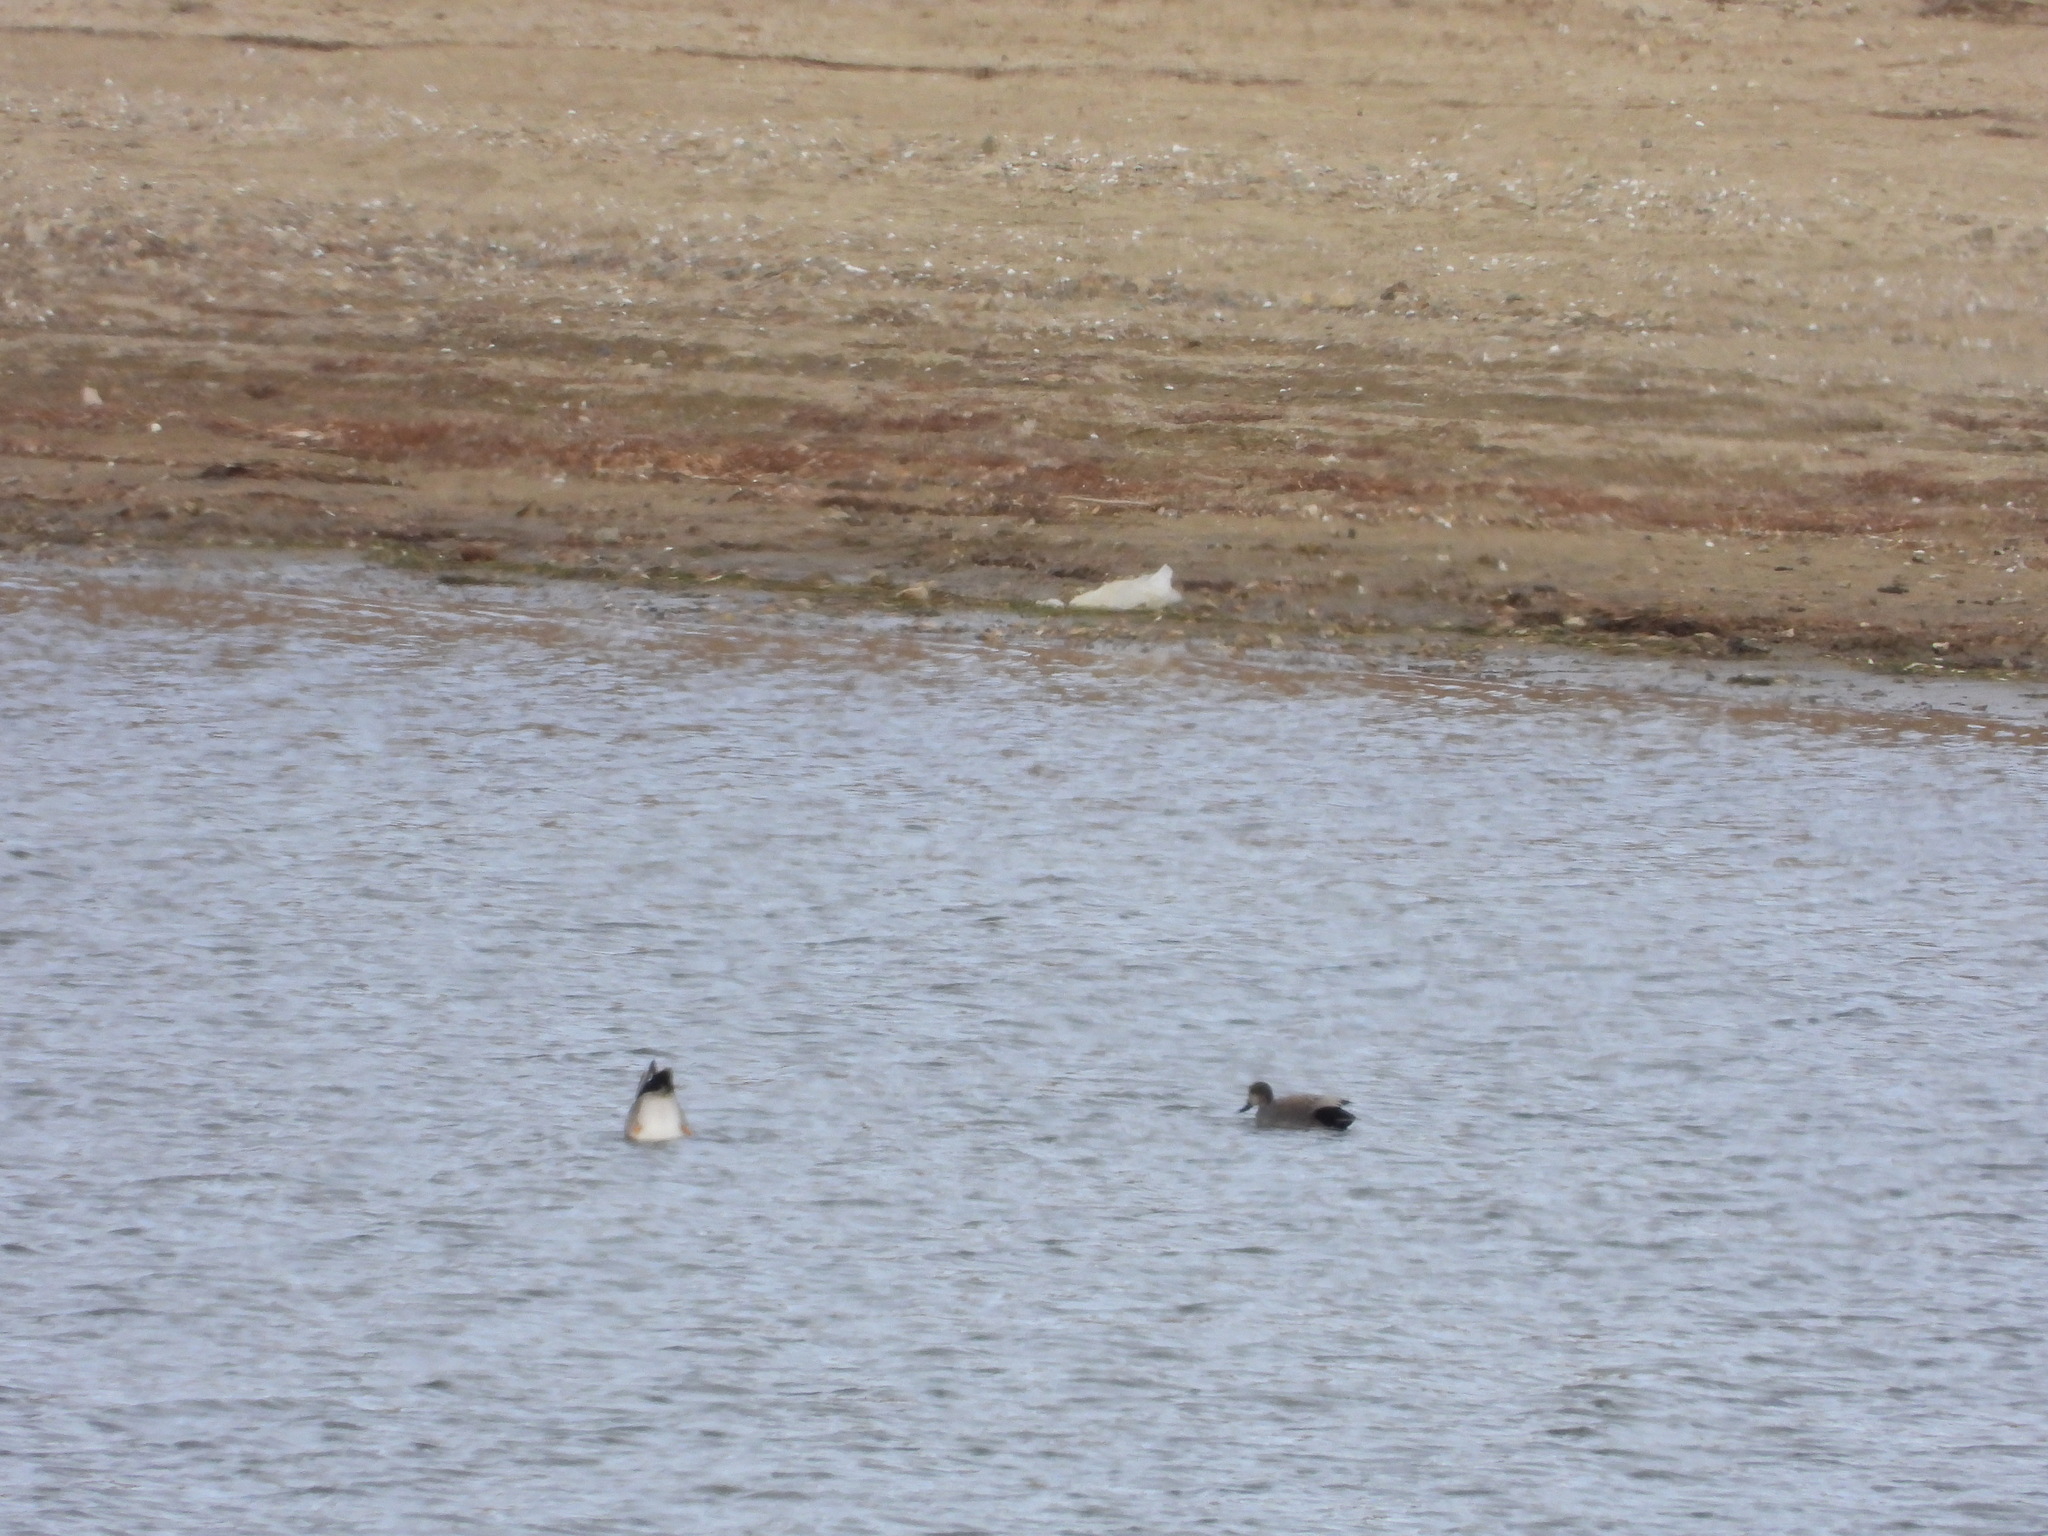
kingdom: Animalia
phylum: Chordata
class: Aves
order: Anseriformes
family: Anatidae
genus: Mareca
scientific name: Mareca strepera
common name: Gadwall
